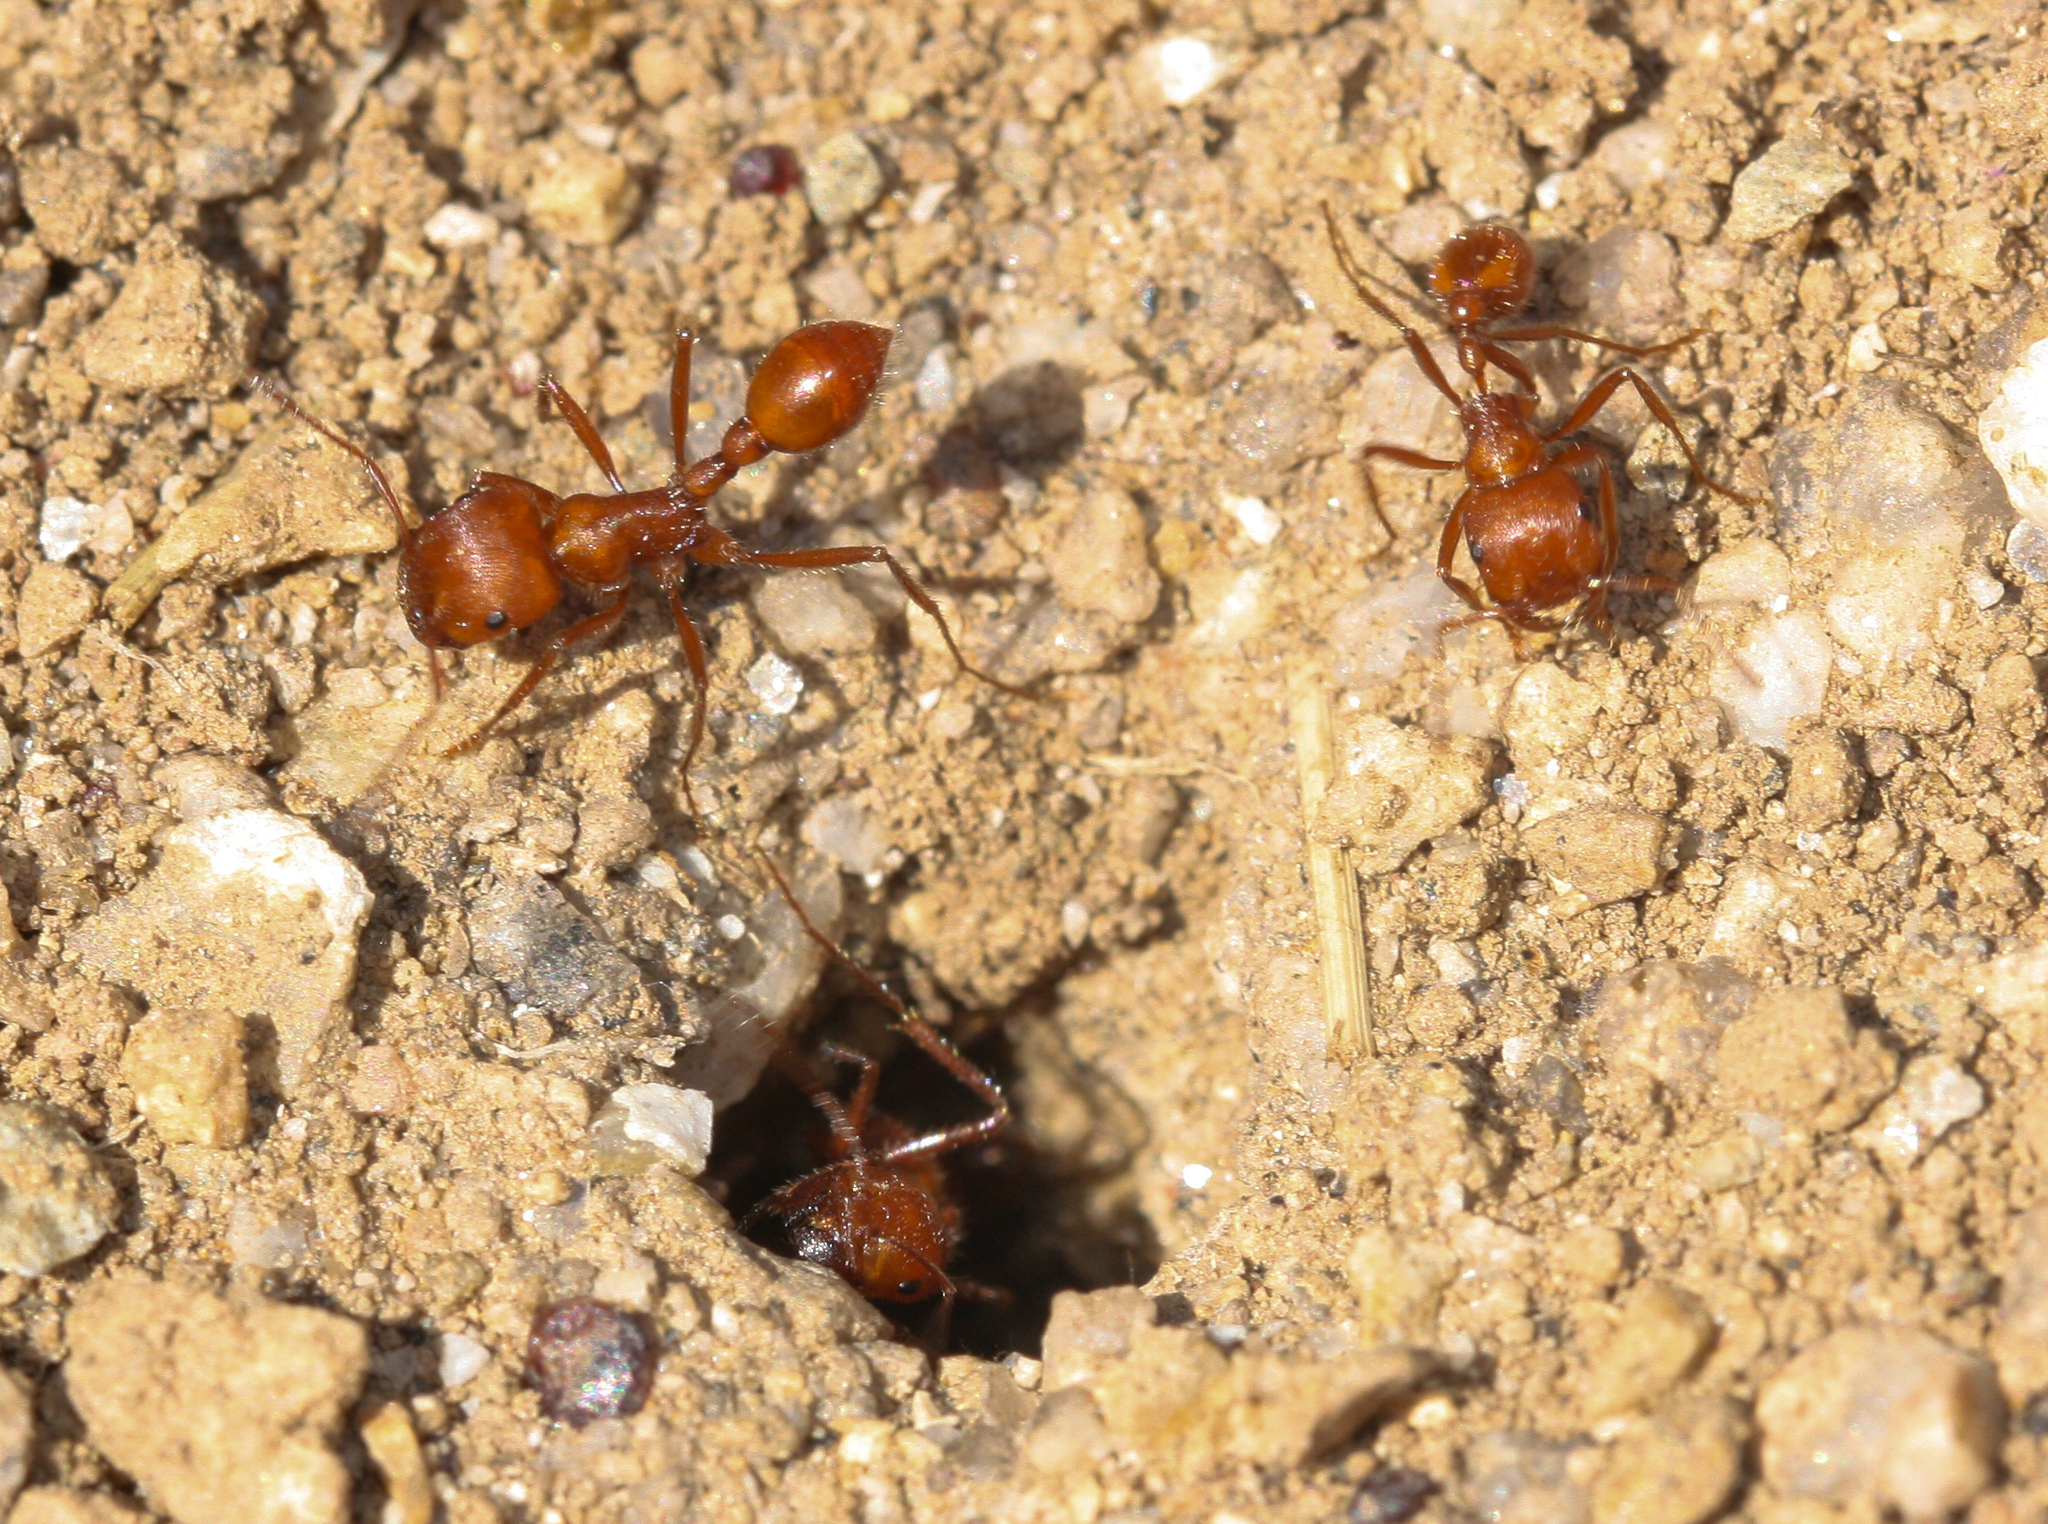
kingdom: Animalia
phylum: Arthropoda
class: Insecta
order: Hymenoptera
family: Formicidae
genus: Pogonomyrmex
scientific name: Pogonomyrmex maricopa
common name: Maricopa harvester ant
